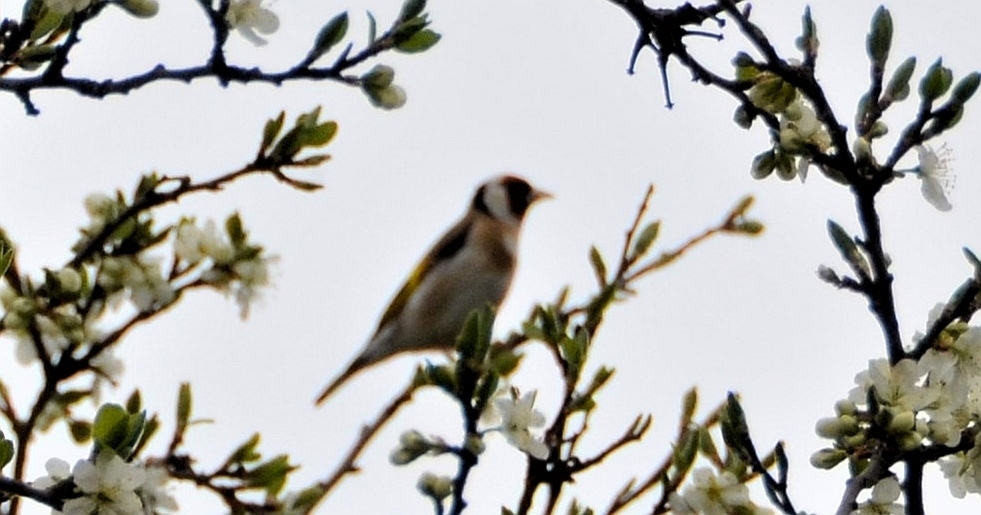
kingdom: Animalia
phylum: Chordata
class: Aves
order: Passeriformes
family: Fringillidae
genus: Carduelis
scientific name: Carduelis carduelis
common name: European goldfinch
